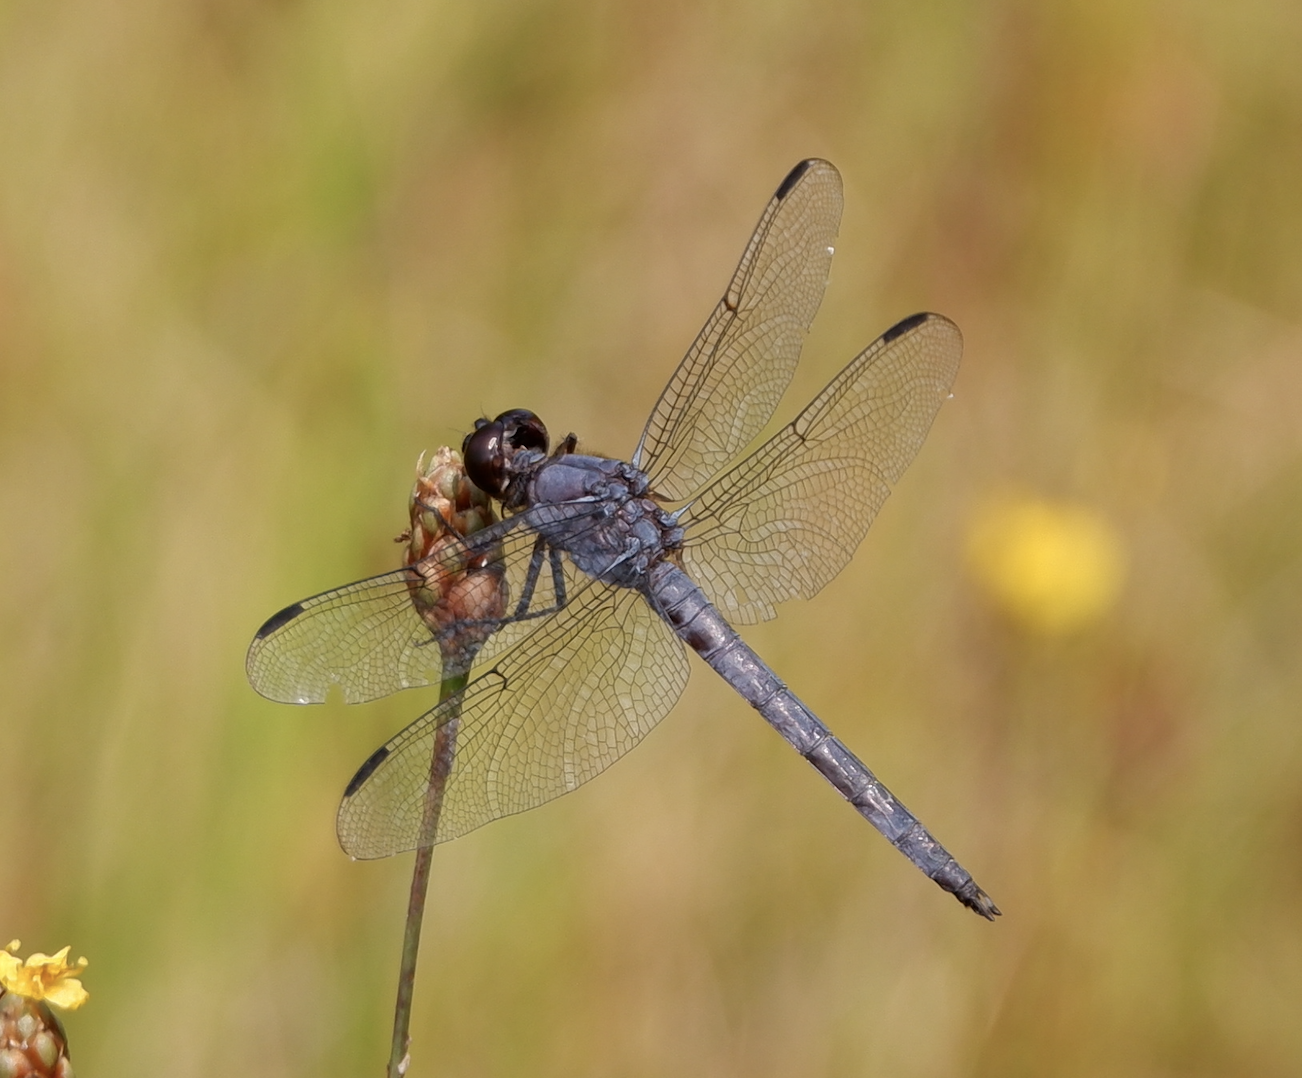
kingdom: Animalia
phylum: Arthropoda
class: Insecta
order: Odonata
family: Libellulidae
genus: Libellula
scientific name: Libellula incesta
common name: Slaty skimmer
